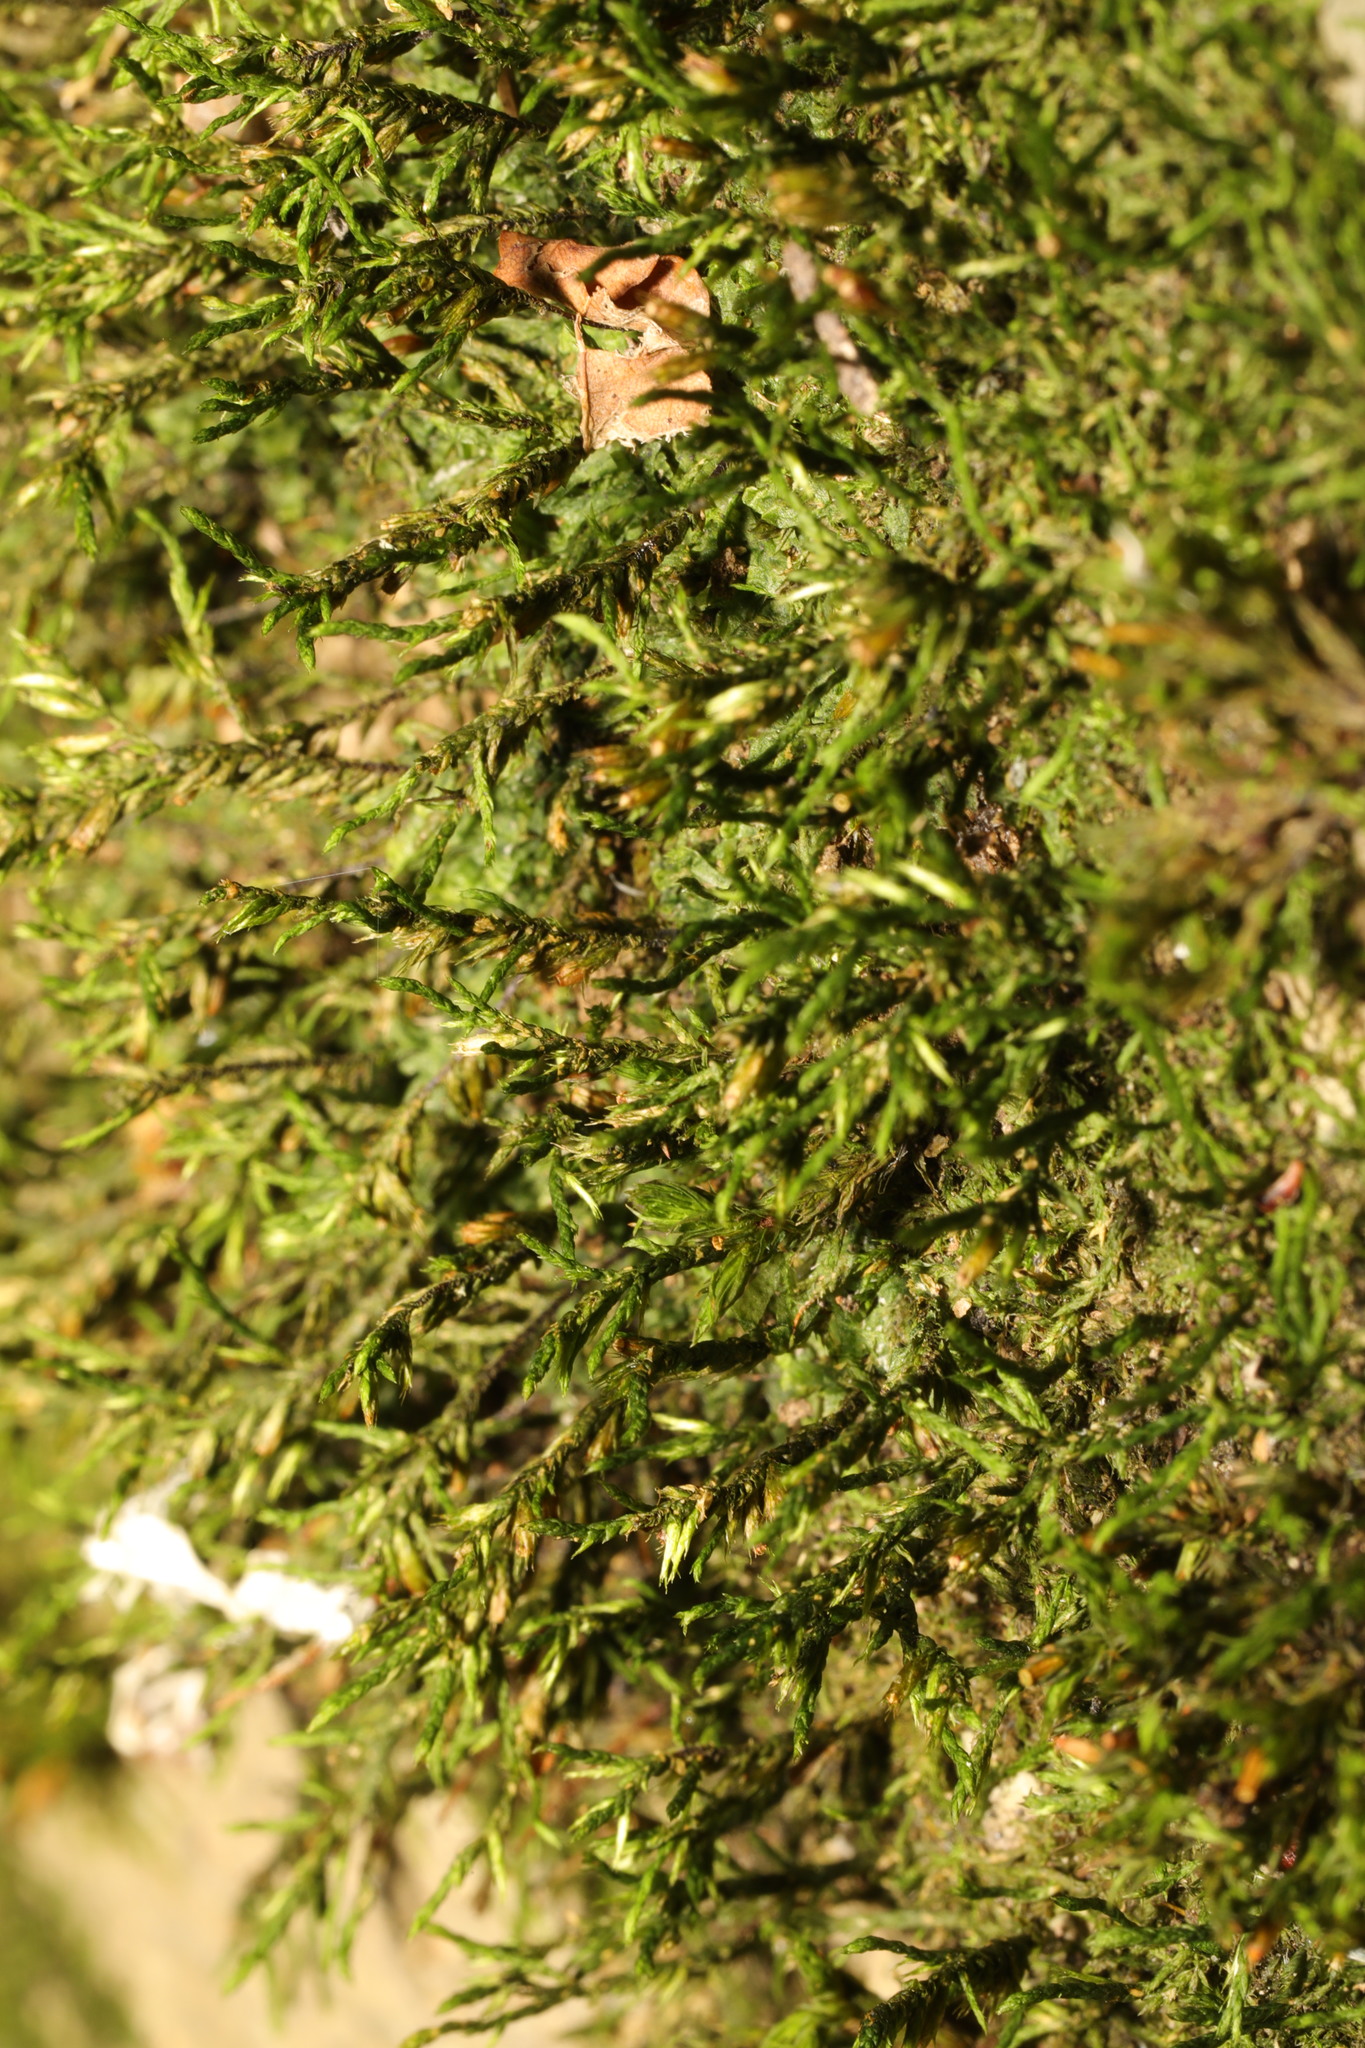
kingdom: Plantae
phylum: Bryophyta
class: Bryopsida
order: Hypnales
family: Cryphaeaceae
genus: Cryphaea
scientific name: Cryphaea heteromalla
